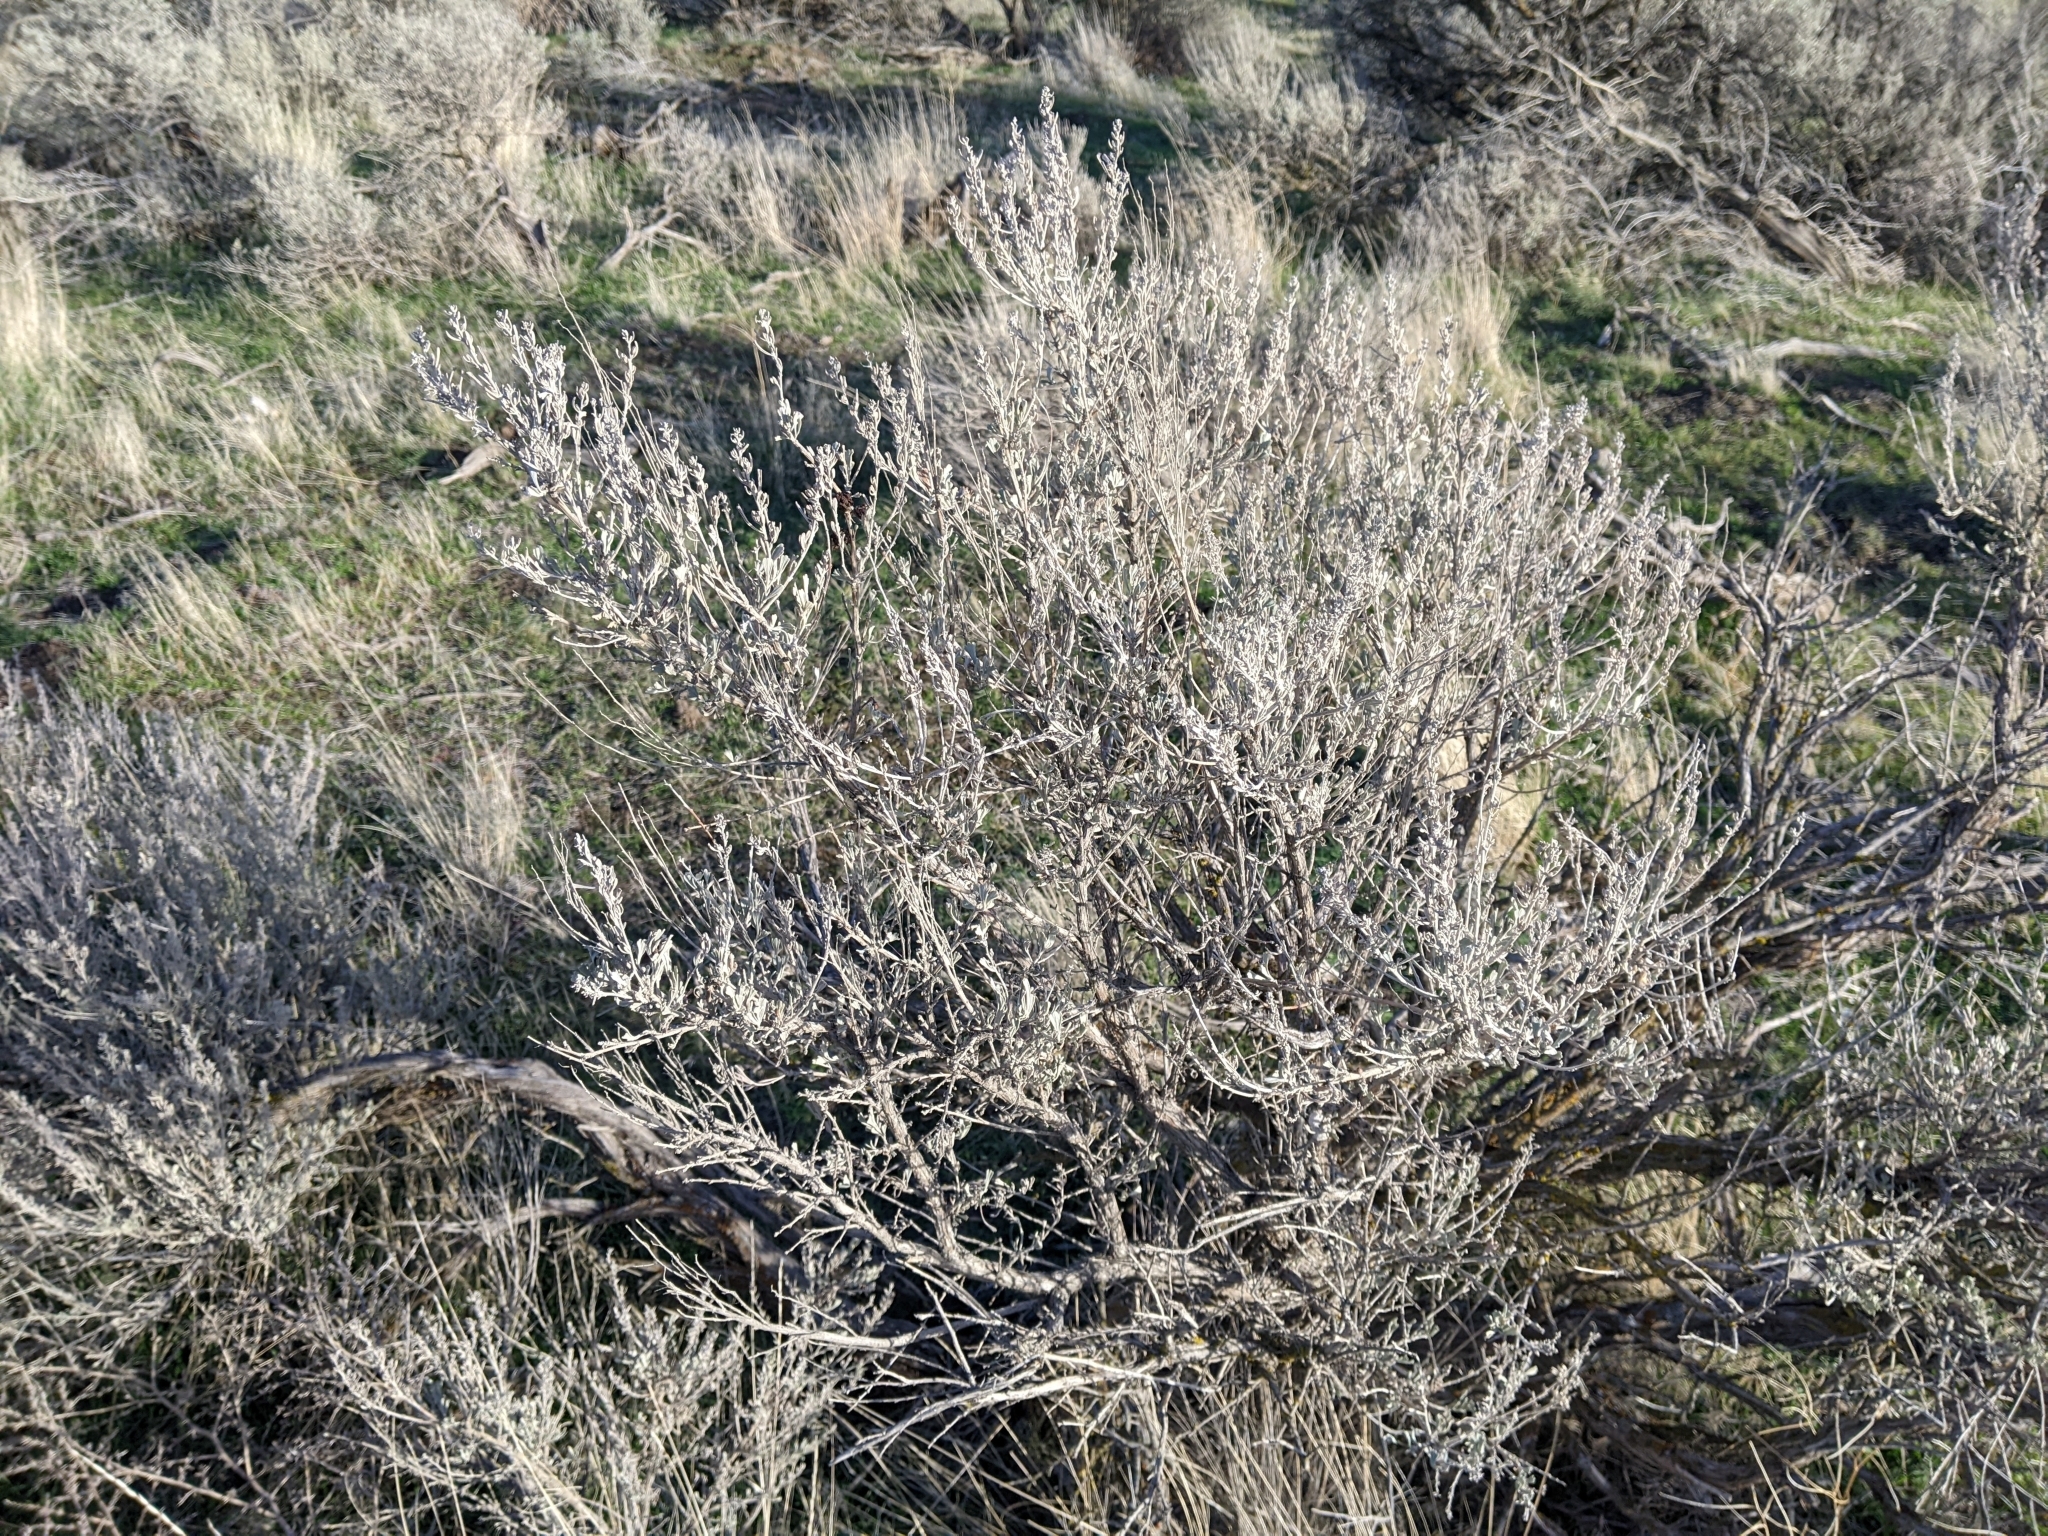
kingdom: Animalia
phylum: Arthropoda
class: Insecta
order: Diptera
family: Cecidomyiidae
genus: Rhopalomyia
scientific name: Rhopalomyia medusa
